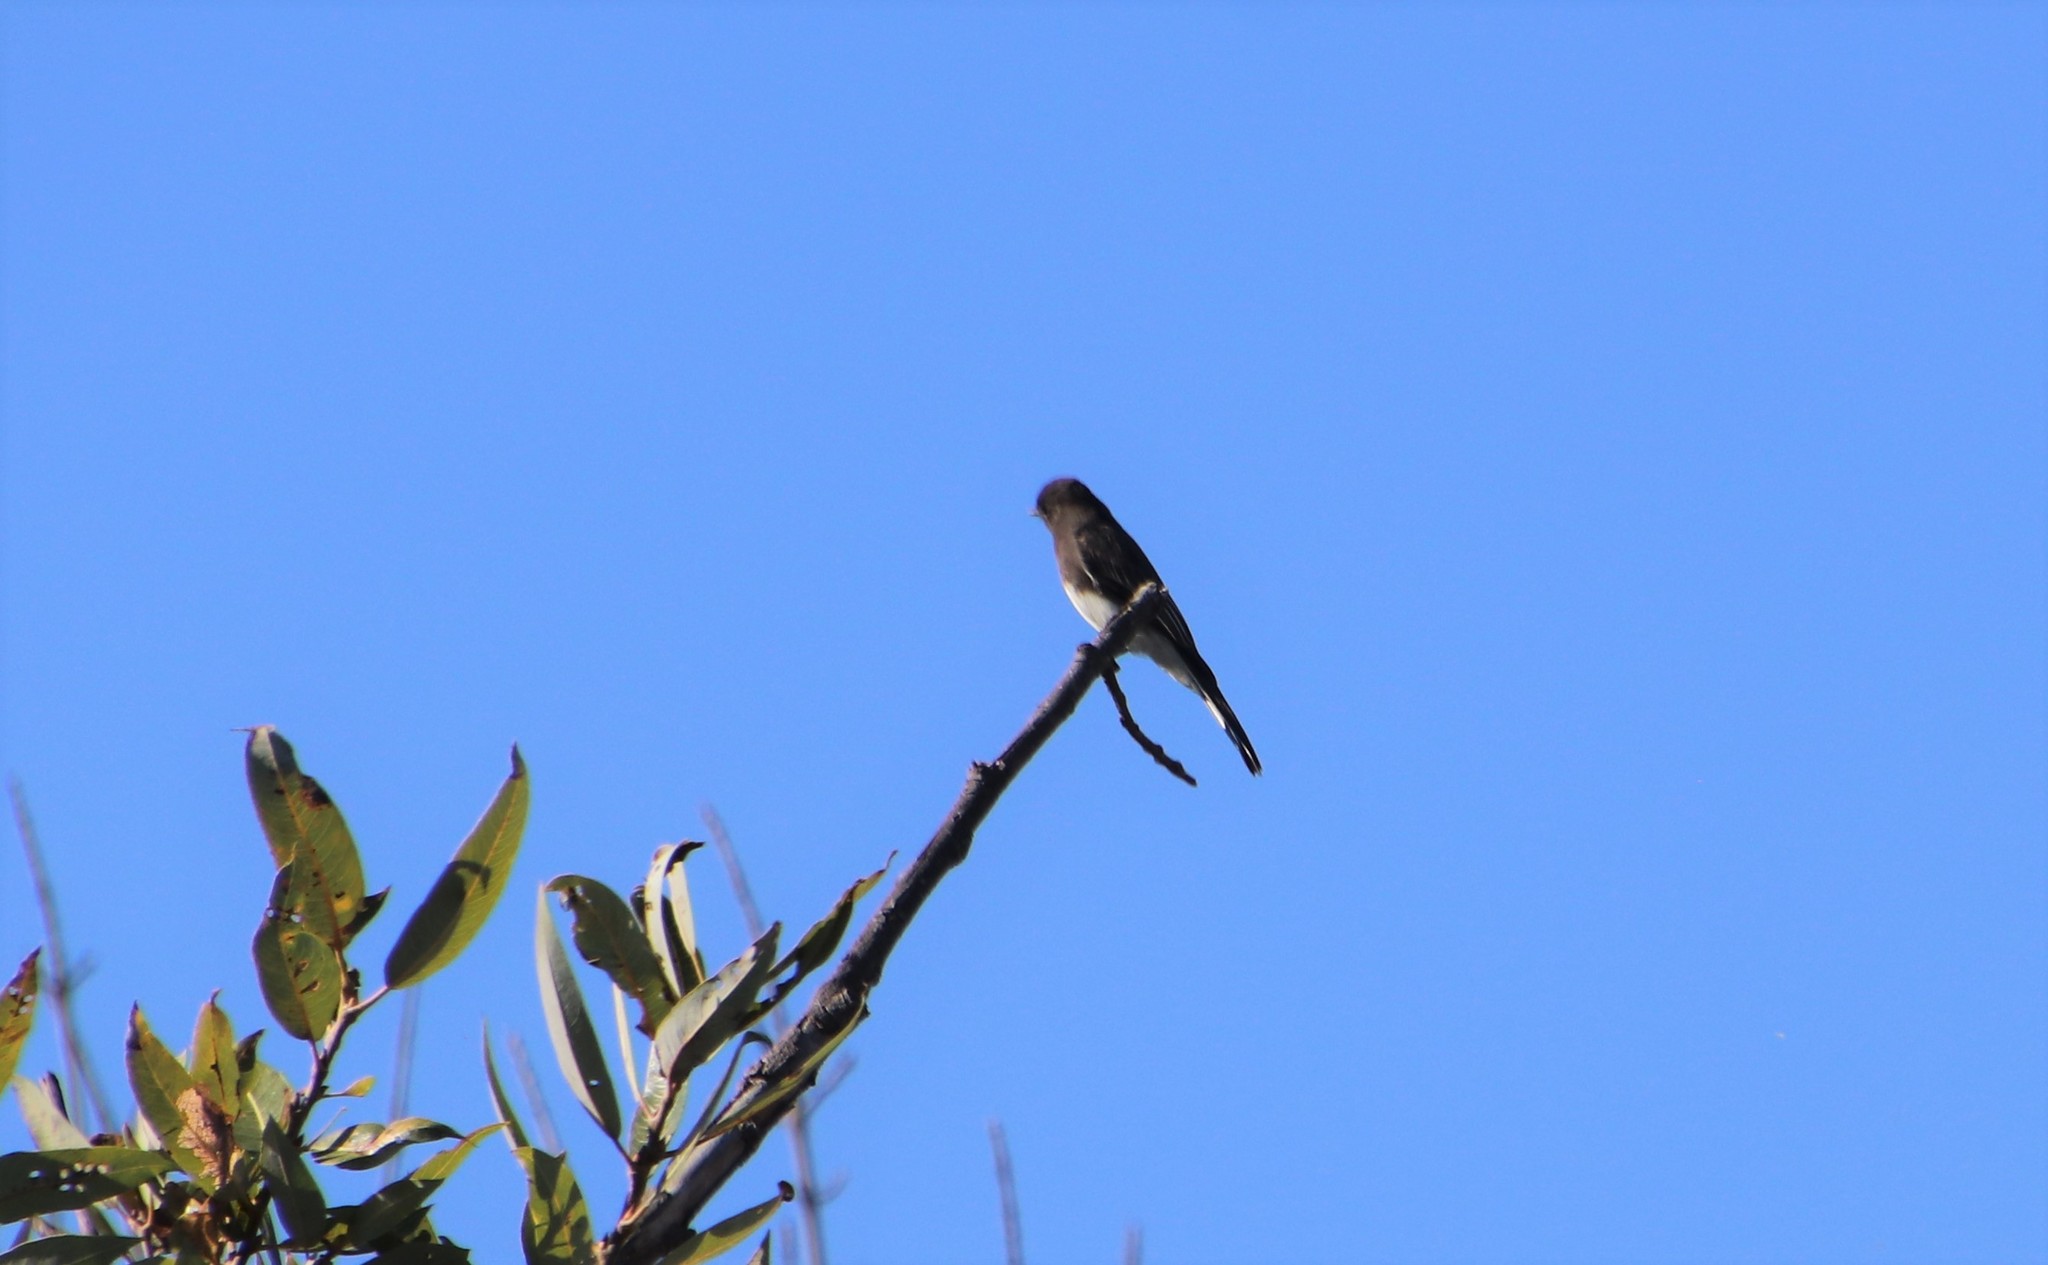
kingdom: Animalia
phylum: Chordata
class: Aves
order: Passeriformes
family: Tyrannidae
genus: Sayornis
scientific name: Sayornis nigricans
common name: Black phoebe
